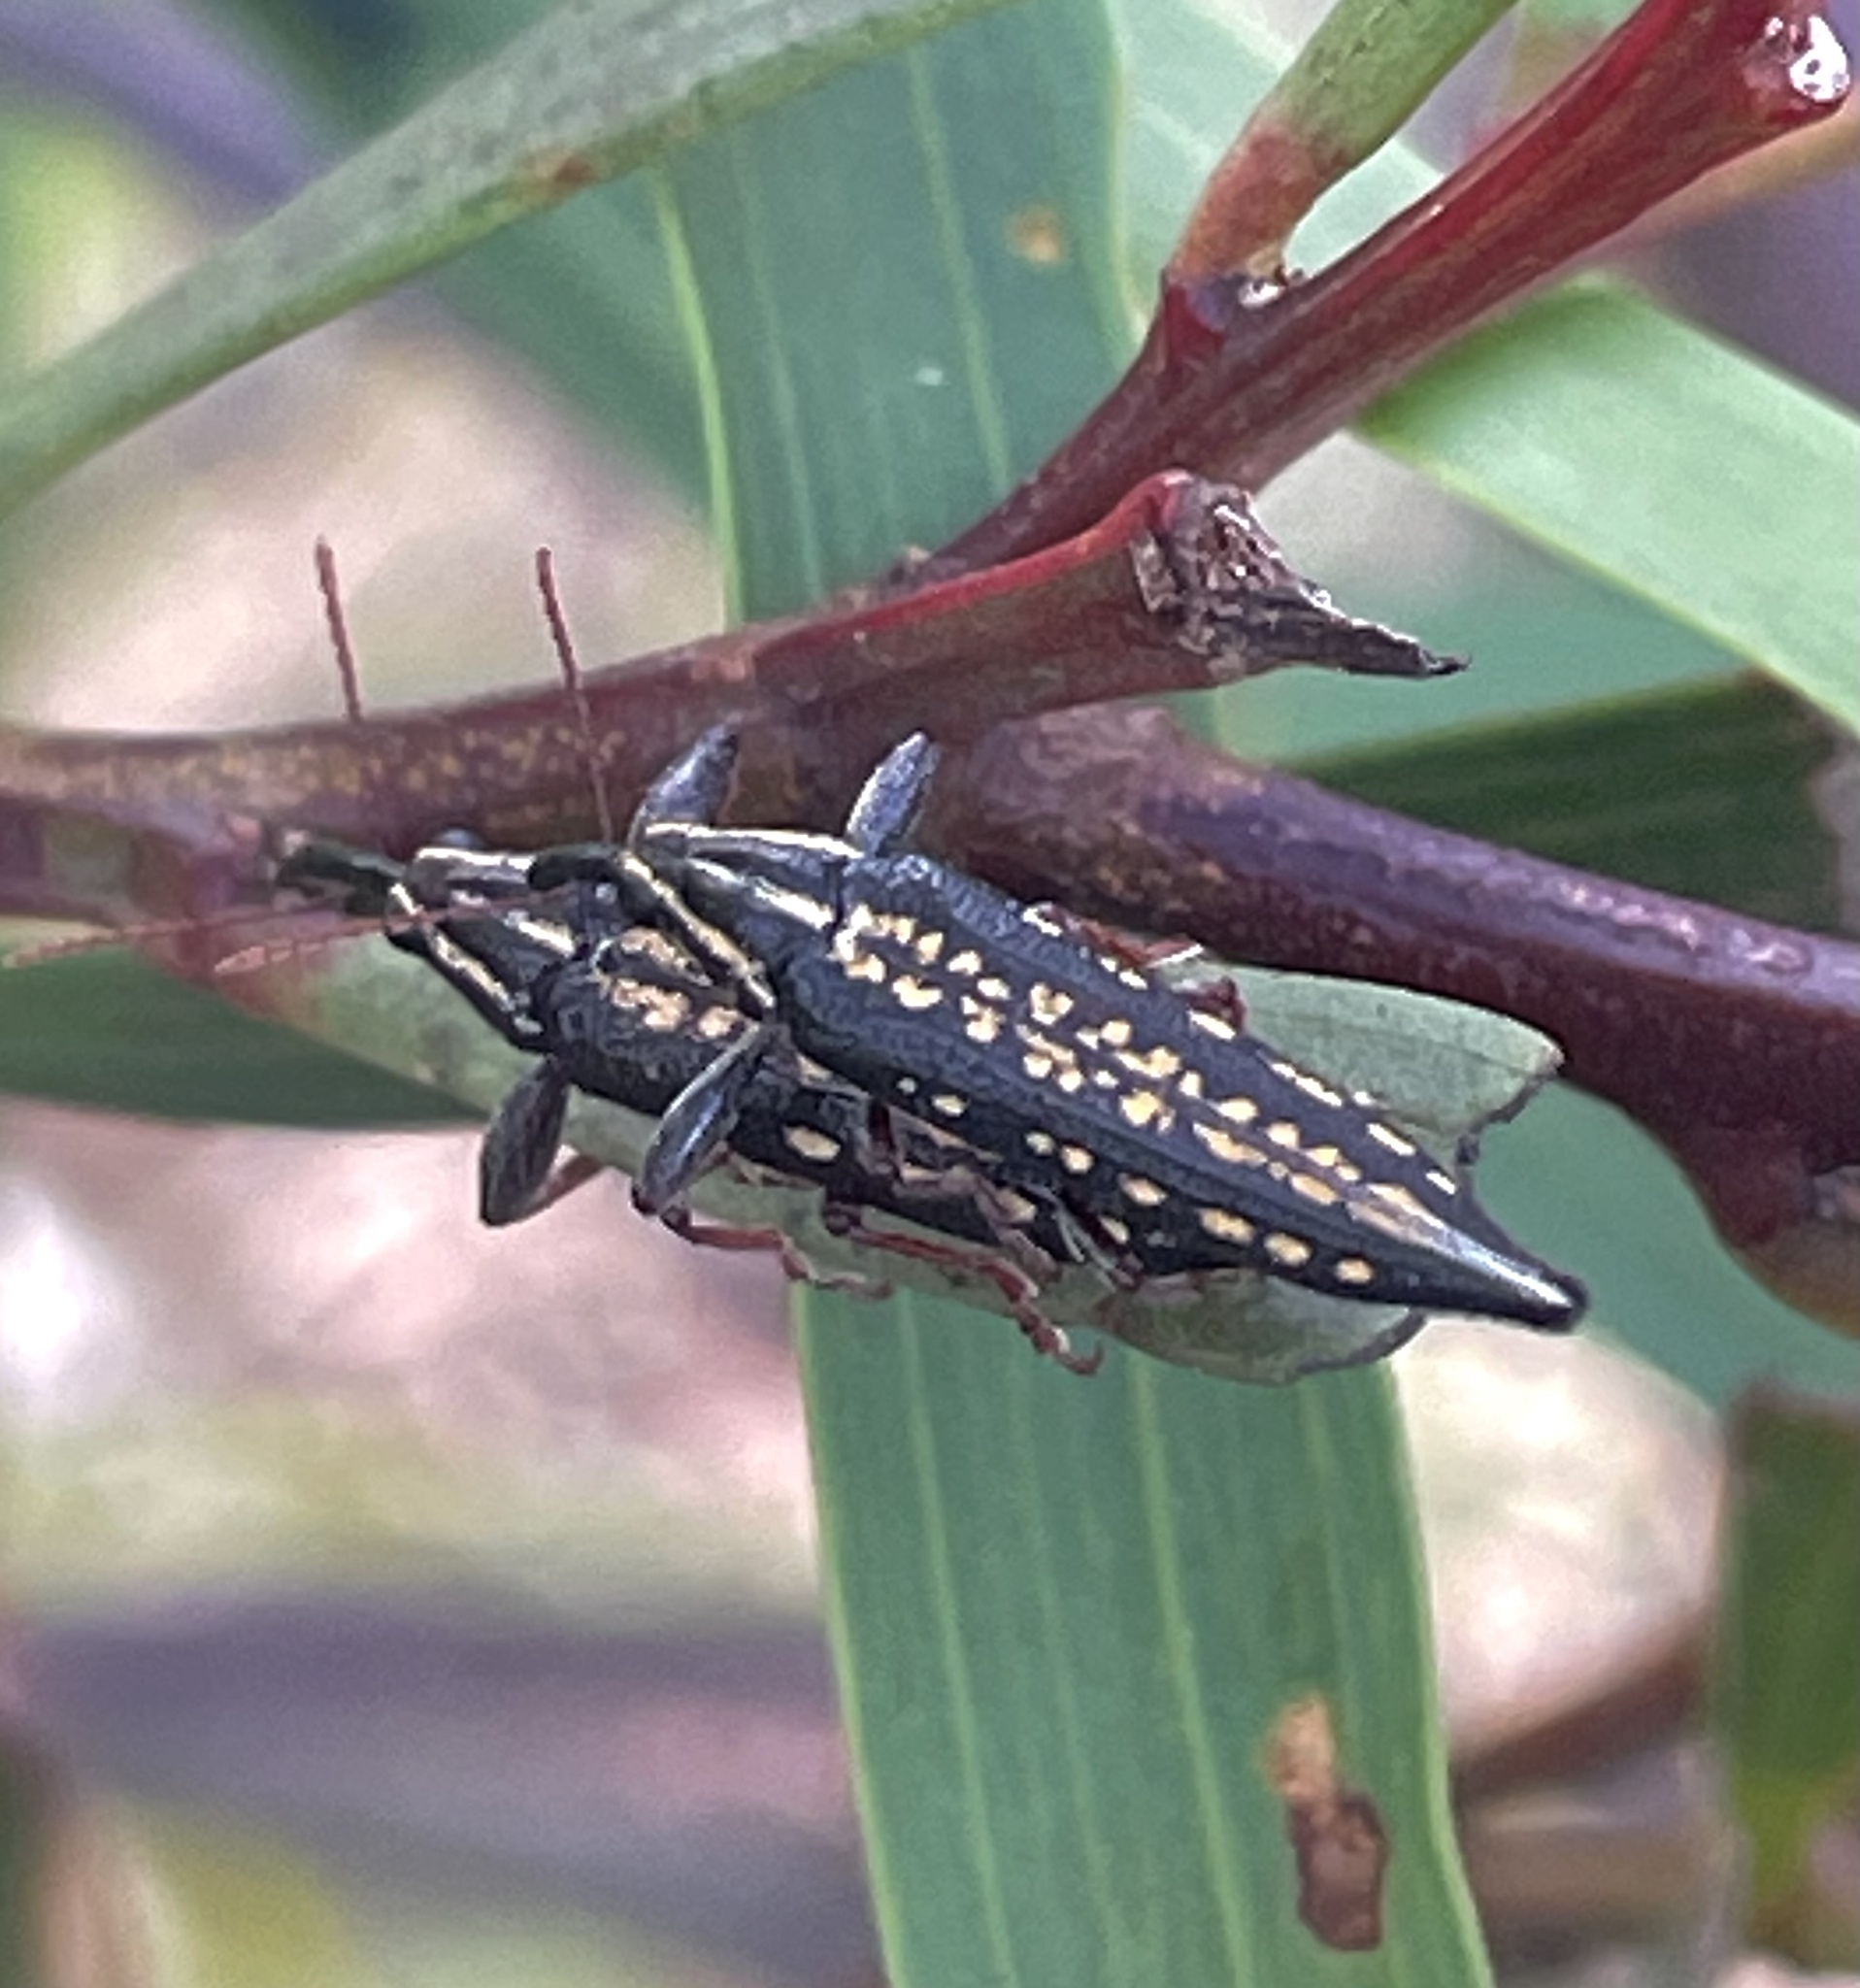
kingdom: Animalia
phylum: Arthropoda
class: Insecta
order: Coleoptera
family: Belidae
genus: Rhinotia
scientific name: Rhinotia lineata
